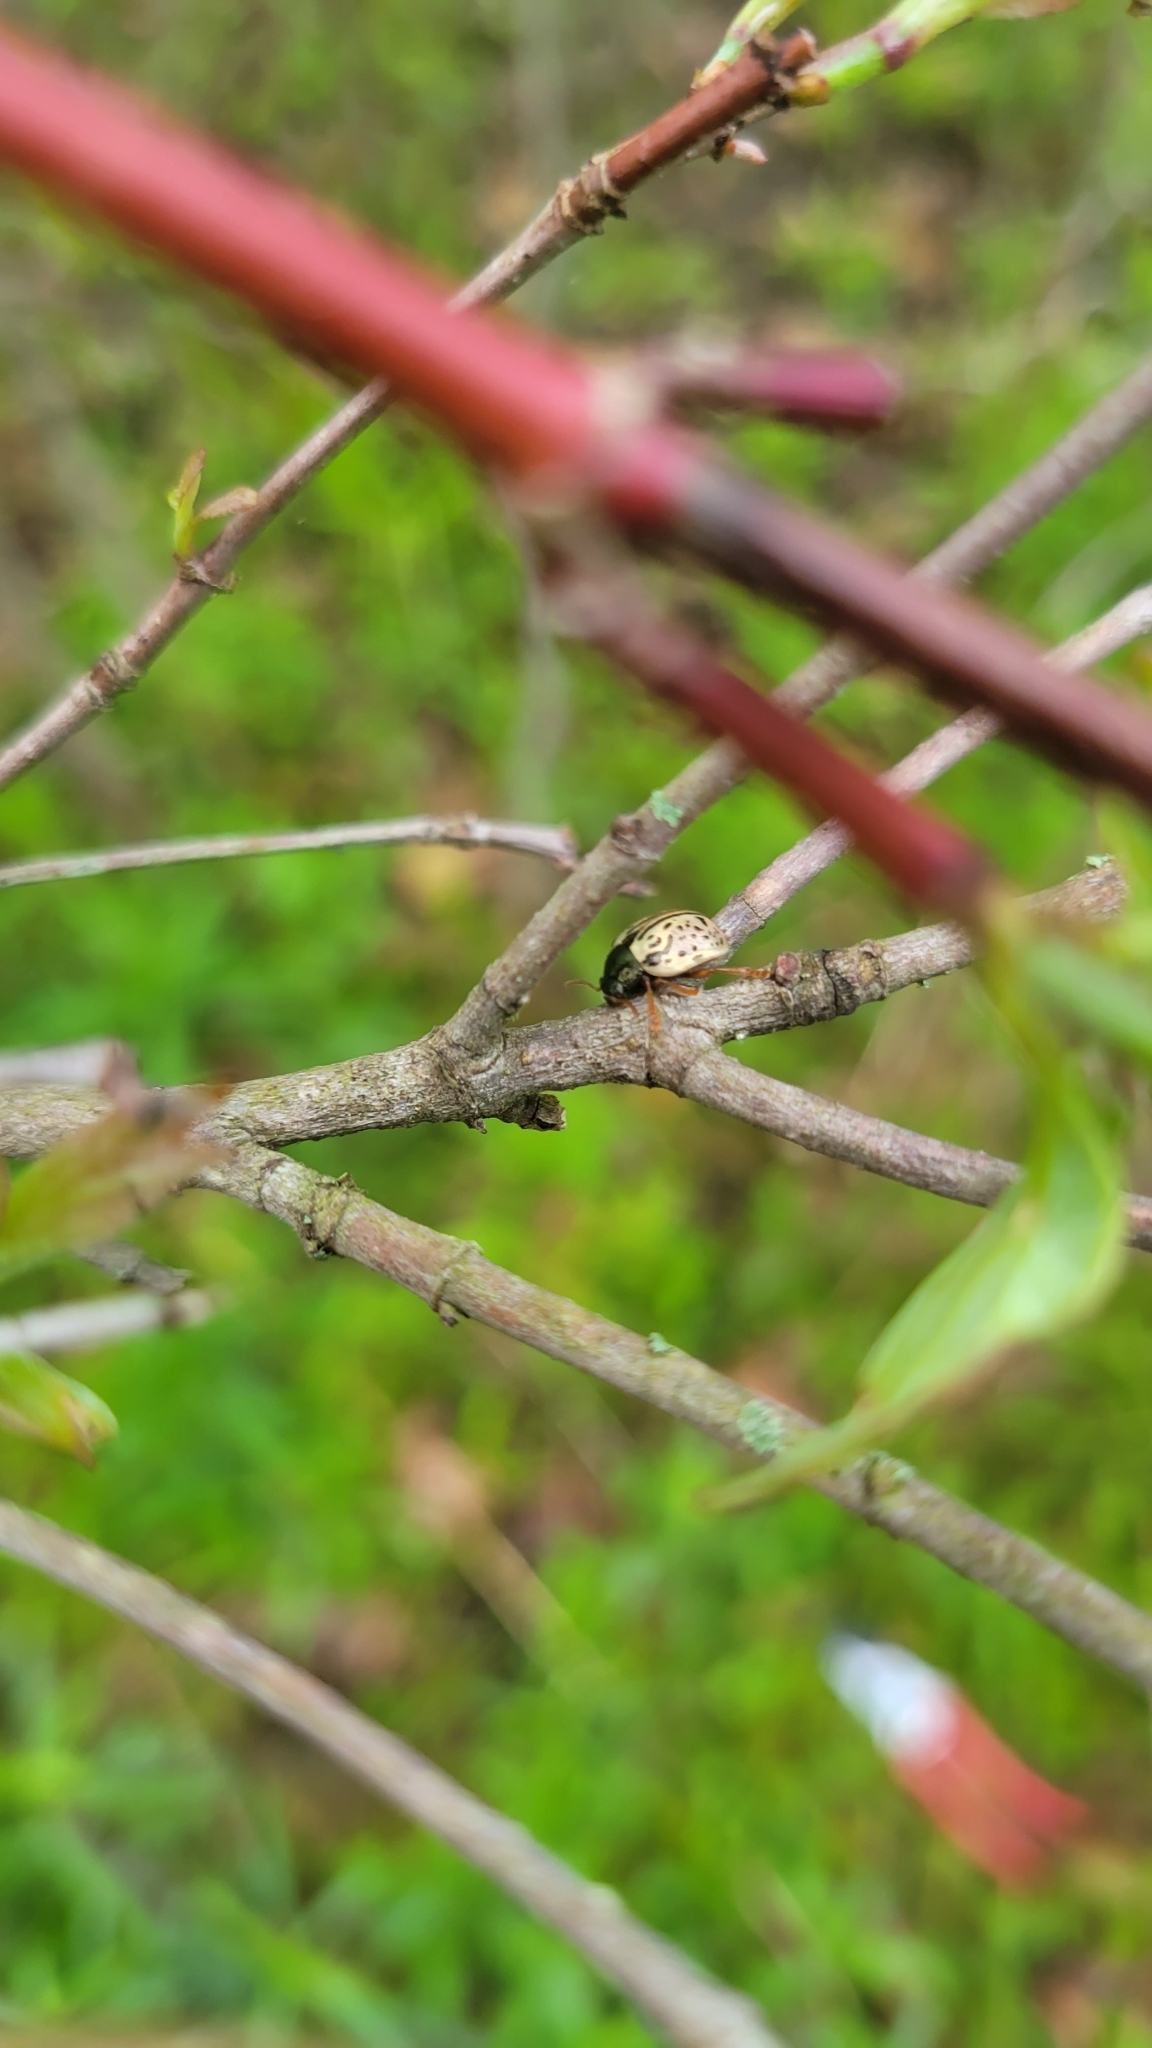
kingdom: Animalia
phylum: Arthropoda
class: Insecta
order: Coleoptera
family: Chrysomelidae
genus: Calligrapha
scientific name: Calligrapha philadelphica
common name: Dogwood leaf beetle
